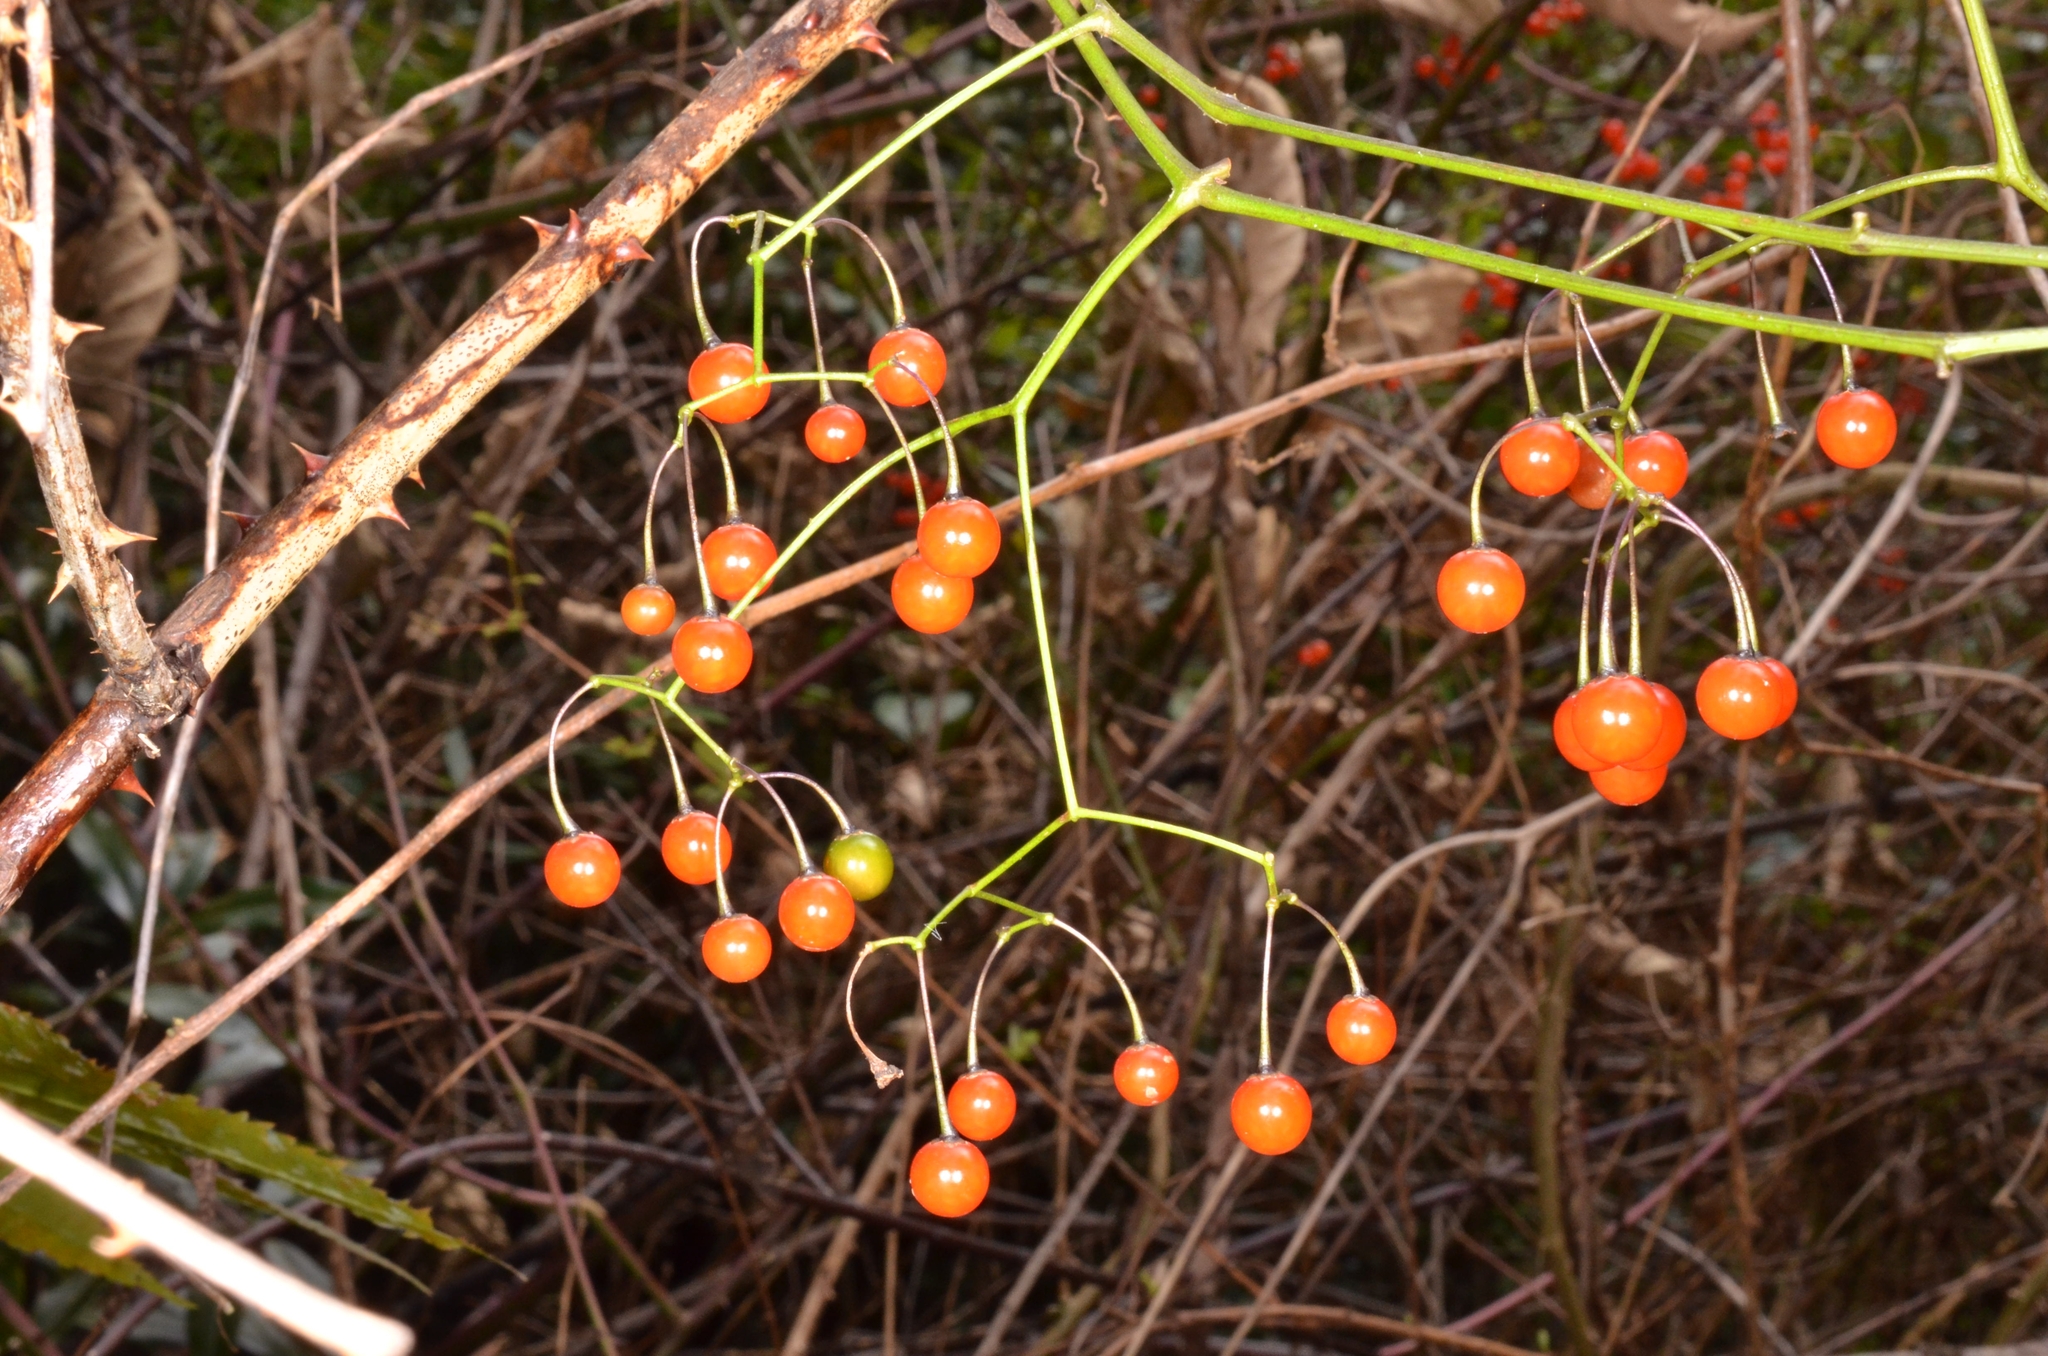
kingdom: Plantae
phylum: Tracheophyta
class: Magnoliopsida
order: Solanales
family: Solanaceae
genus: Solanum
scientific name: Solanum pittosporifolium
